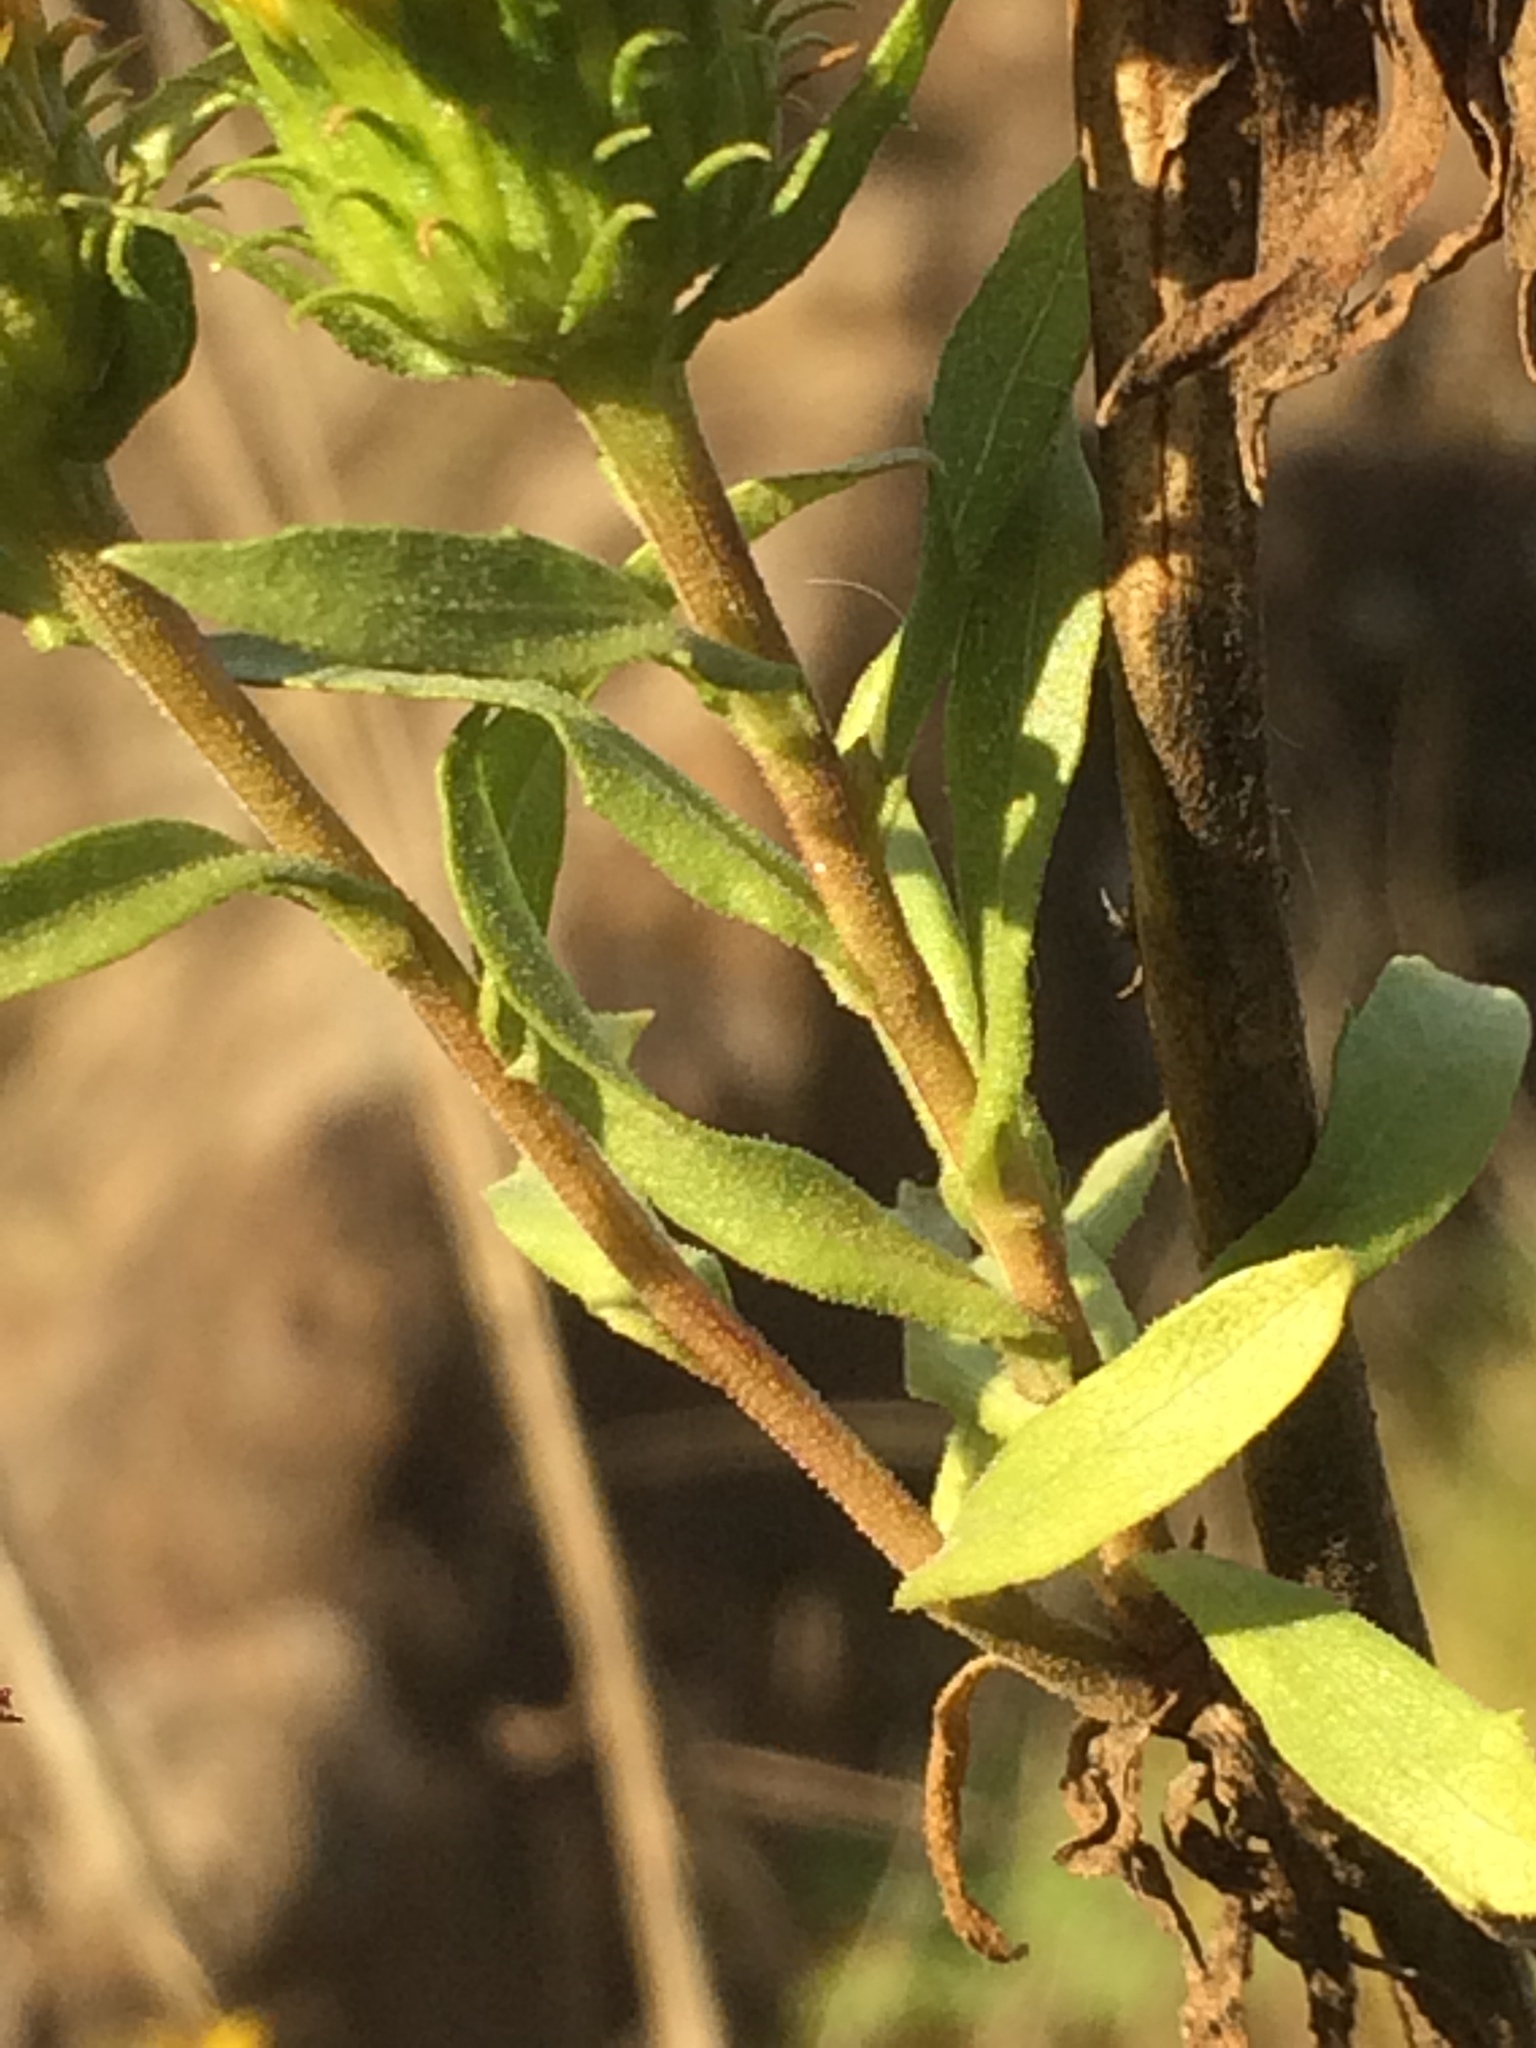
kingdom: Plantae
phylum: Tracheophyta
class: Magnoliopsida
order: Asterales
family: Asteraceae
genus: Grindelia
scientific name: Grindelia integrifolia
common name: Puget sound gumweed
